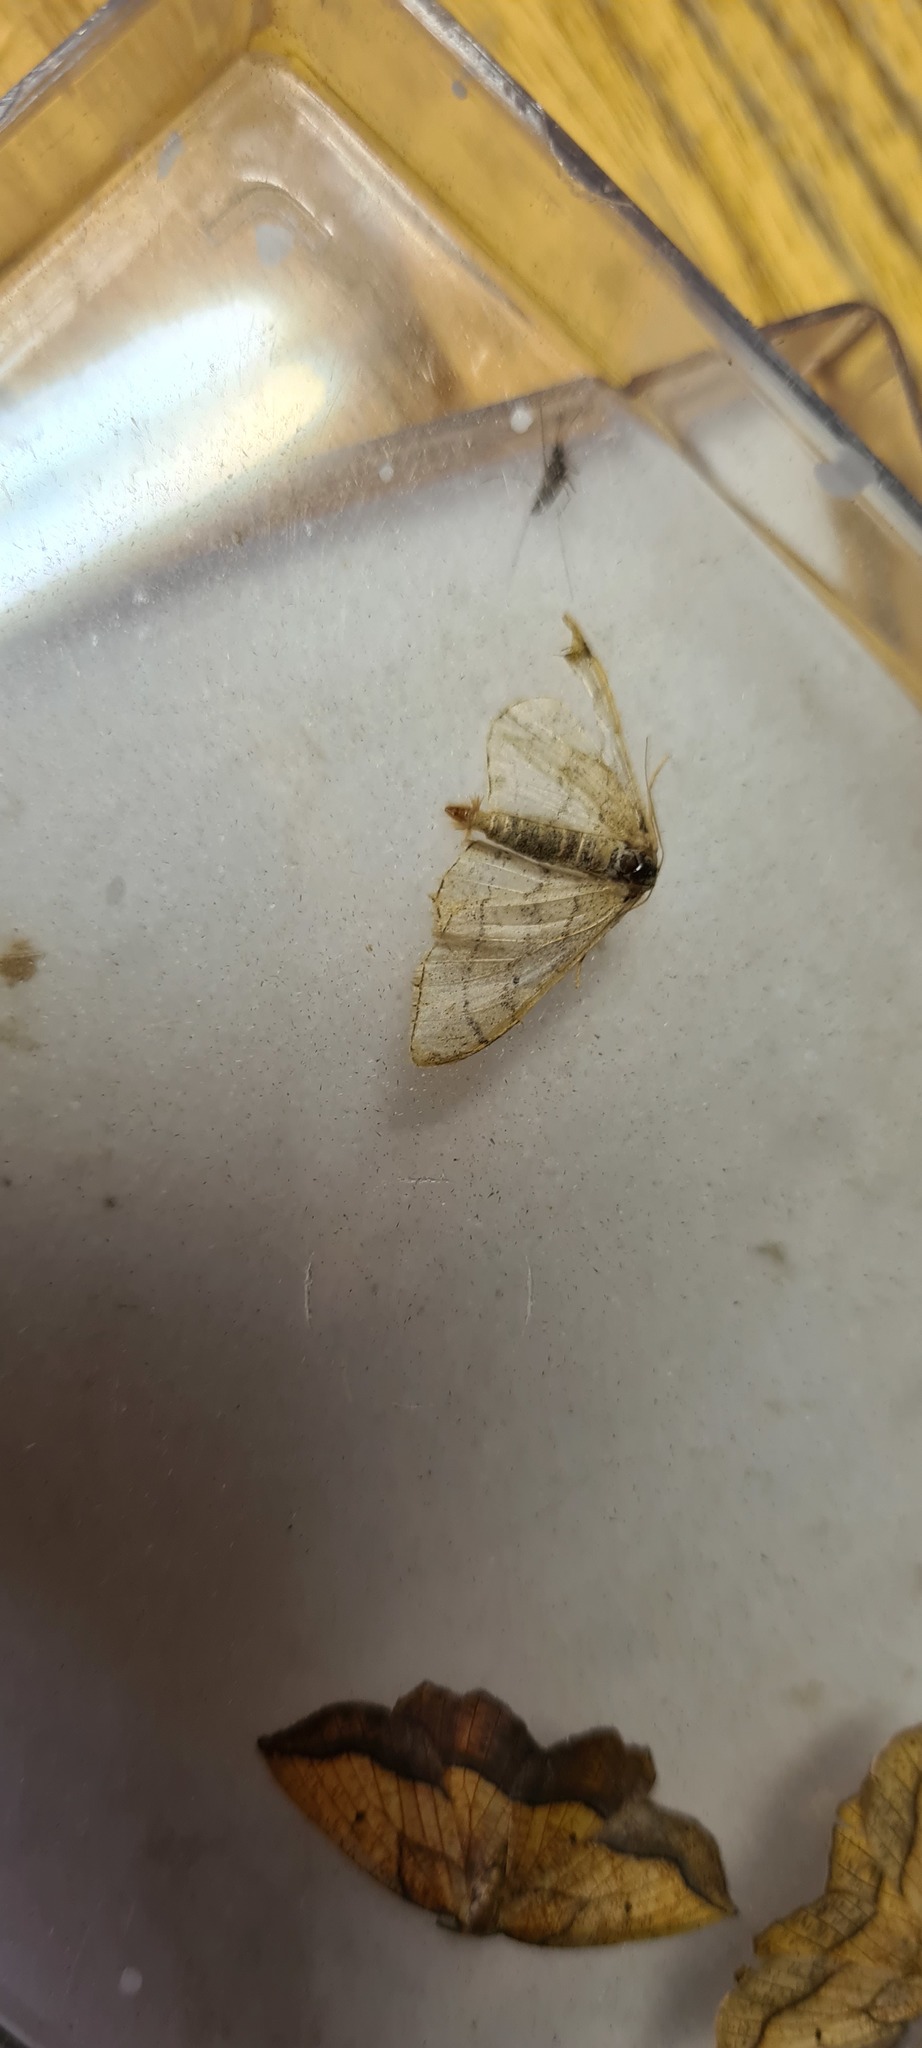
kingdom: Animalia
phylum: Arthropoda
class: Insecta
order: Lepidoptera
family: Geometridae
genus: Idaea
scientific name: Idaea aversata
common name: Riband wave
